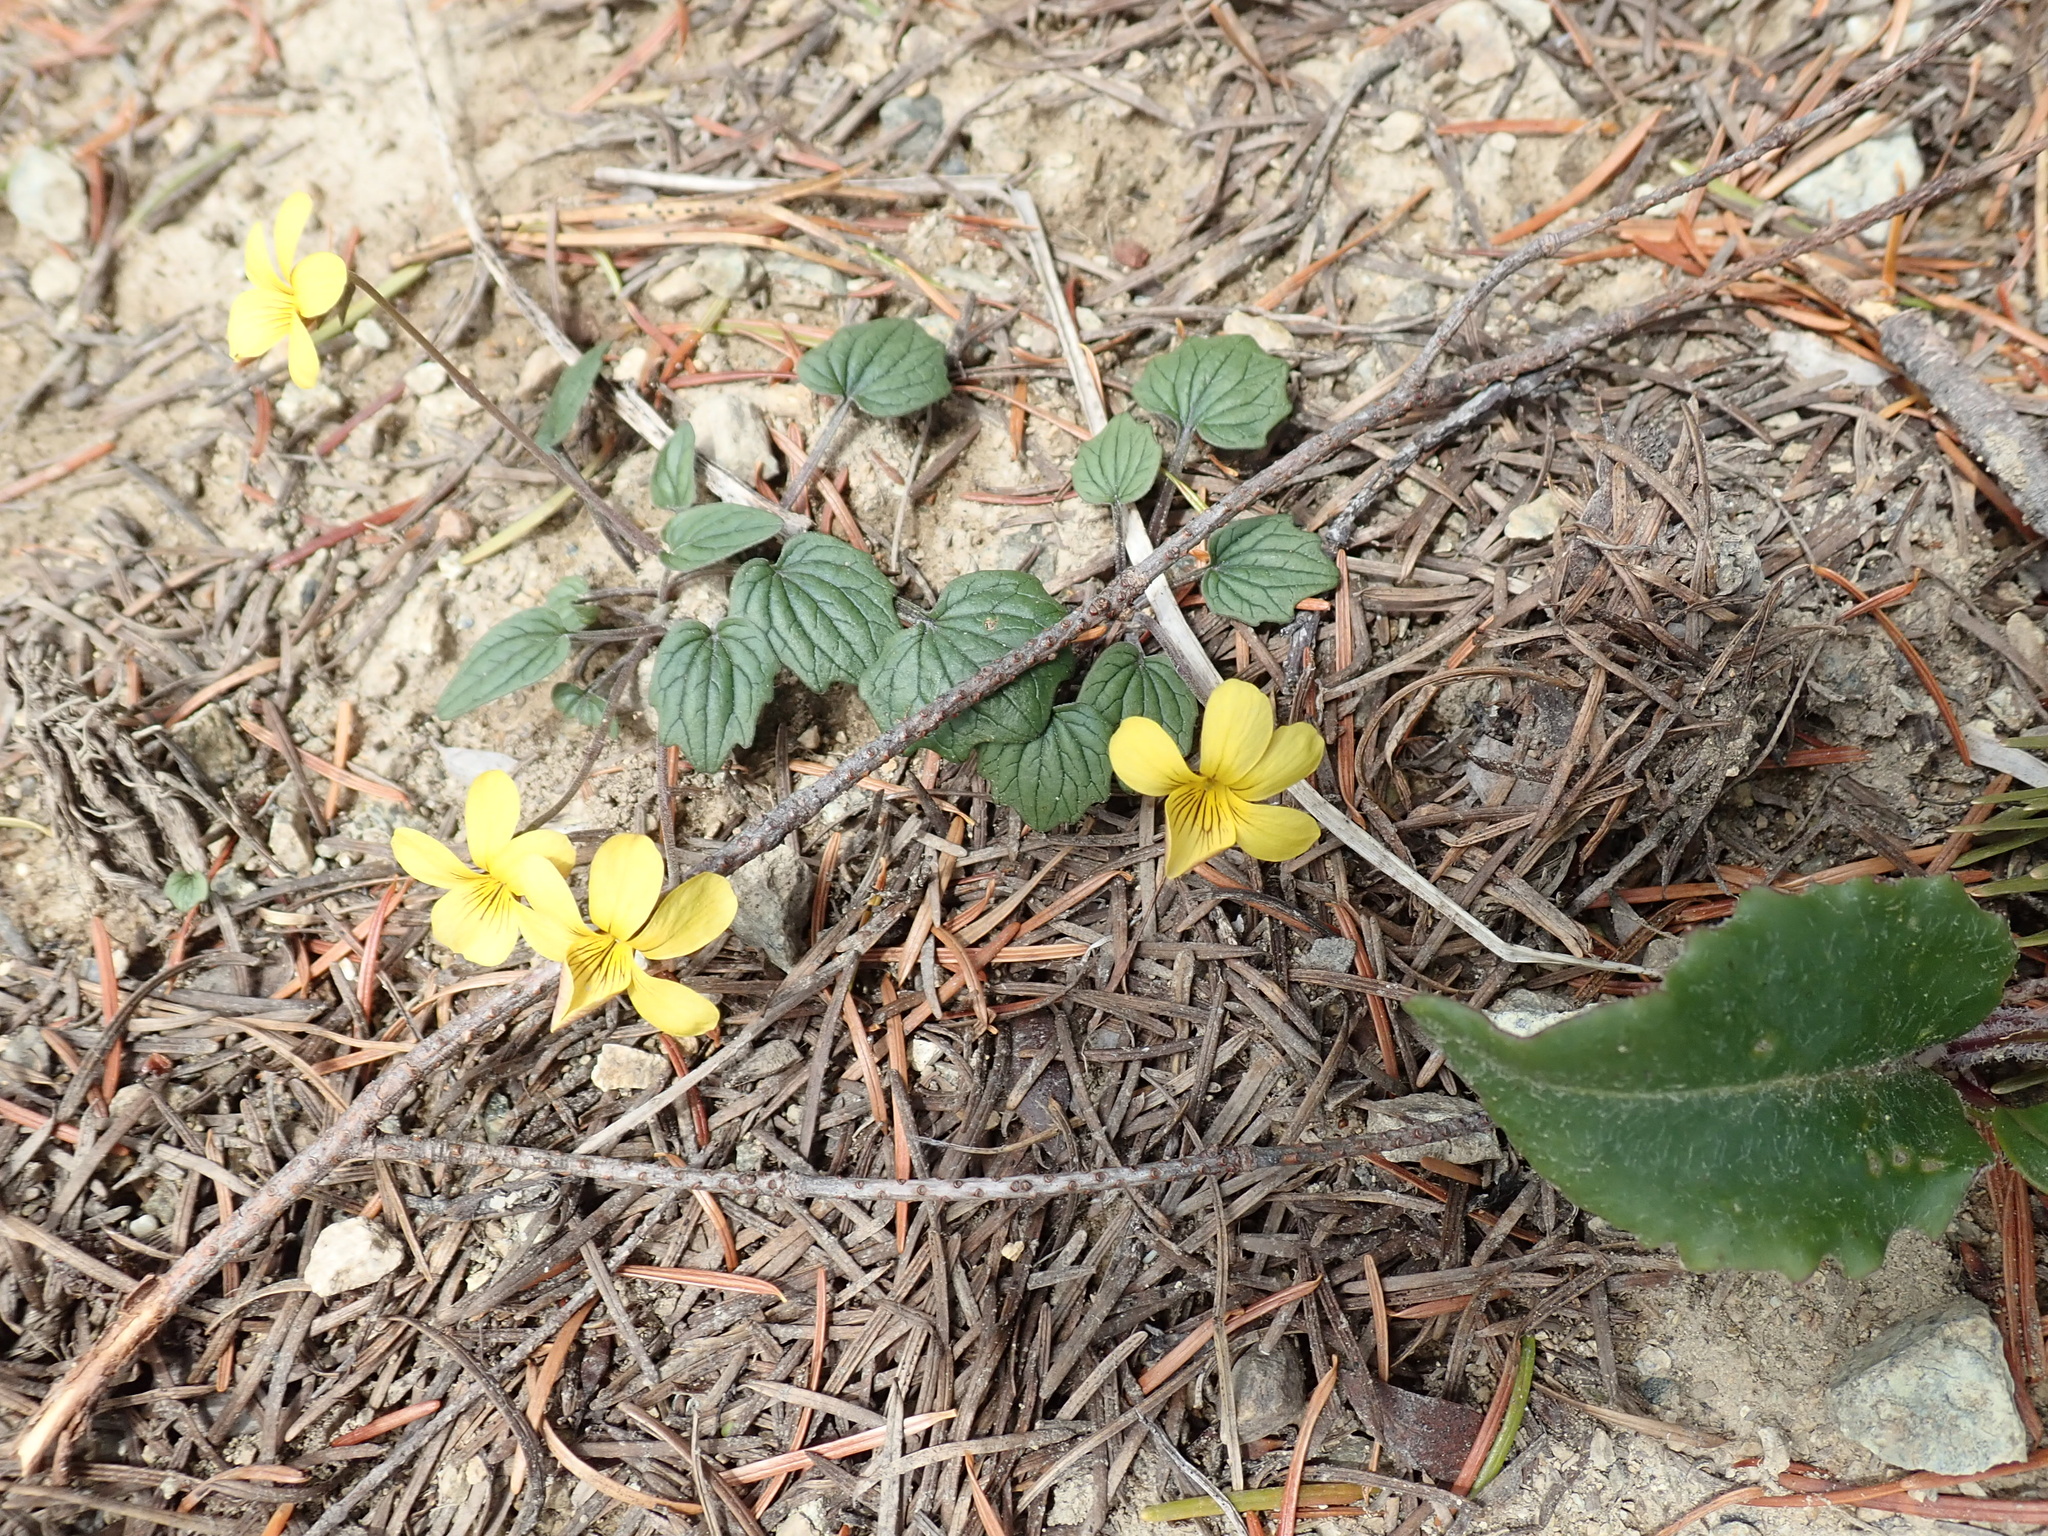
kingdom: Plantae
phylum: Tracheophyta
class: Magnoliopsida
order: Malpighiales
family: Violaceae
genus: Viola
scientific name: Viola purpurea
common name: Pine violet
